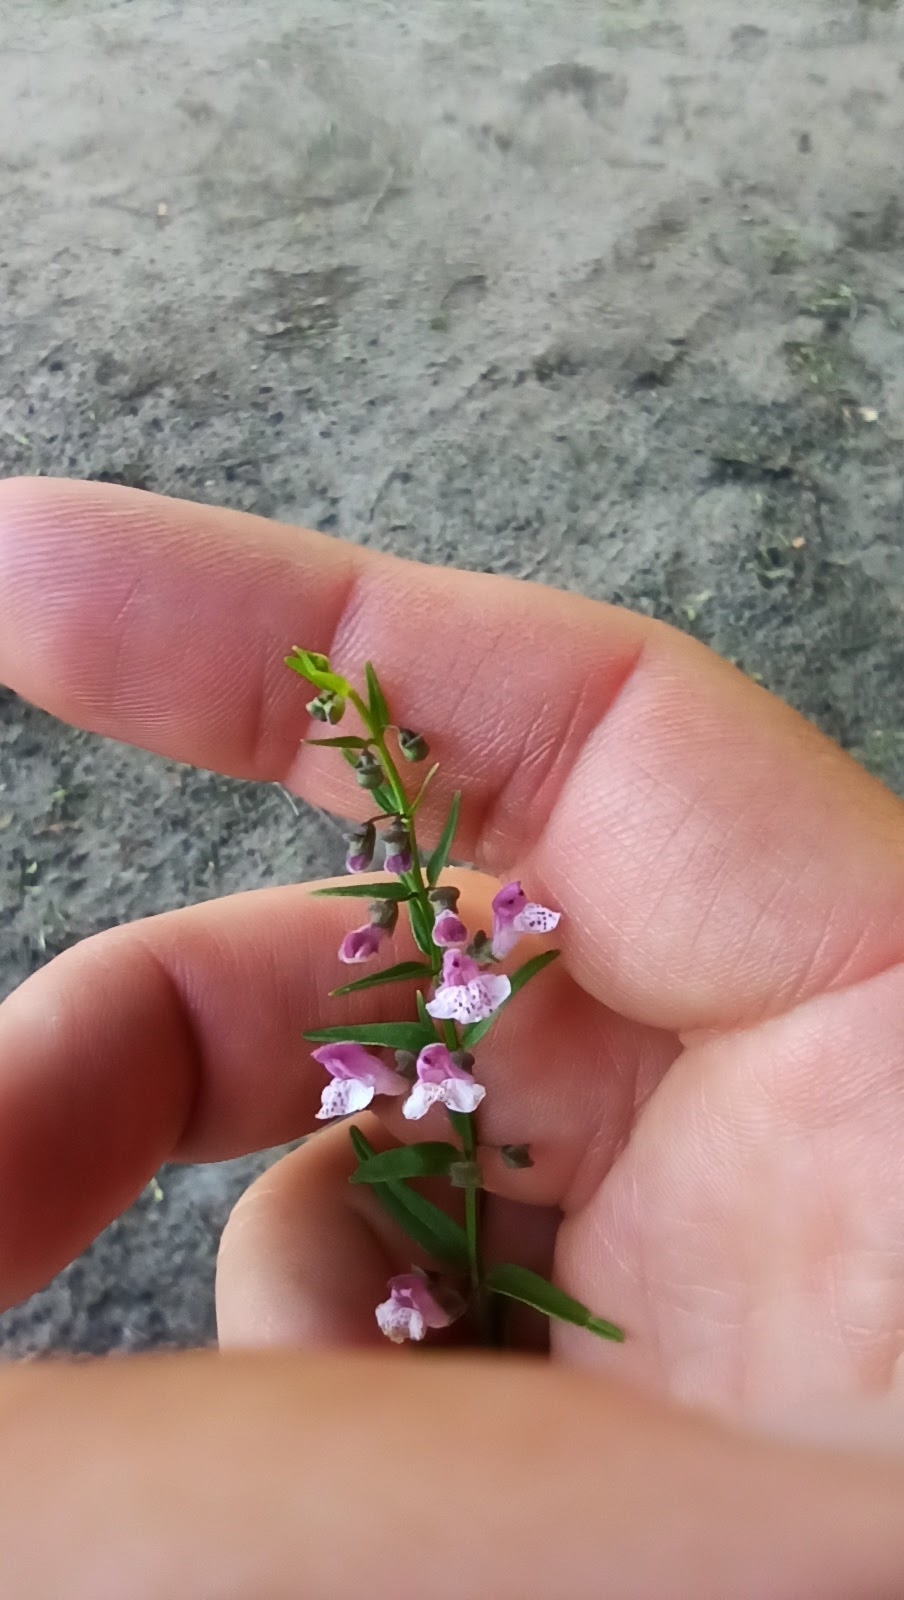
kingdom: Plantae
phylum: Tracheophyta
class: Magnoliopsida
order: Lamiales
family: Lamiaceae
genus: Scutellaria
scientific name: Scutellaria racemosa
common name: South american skullcap
